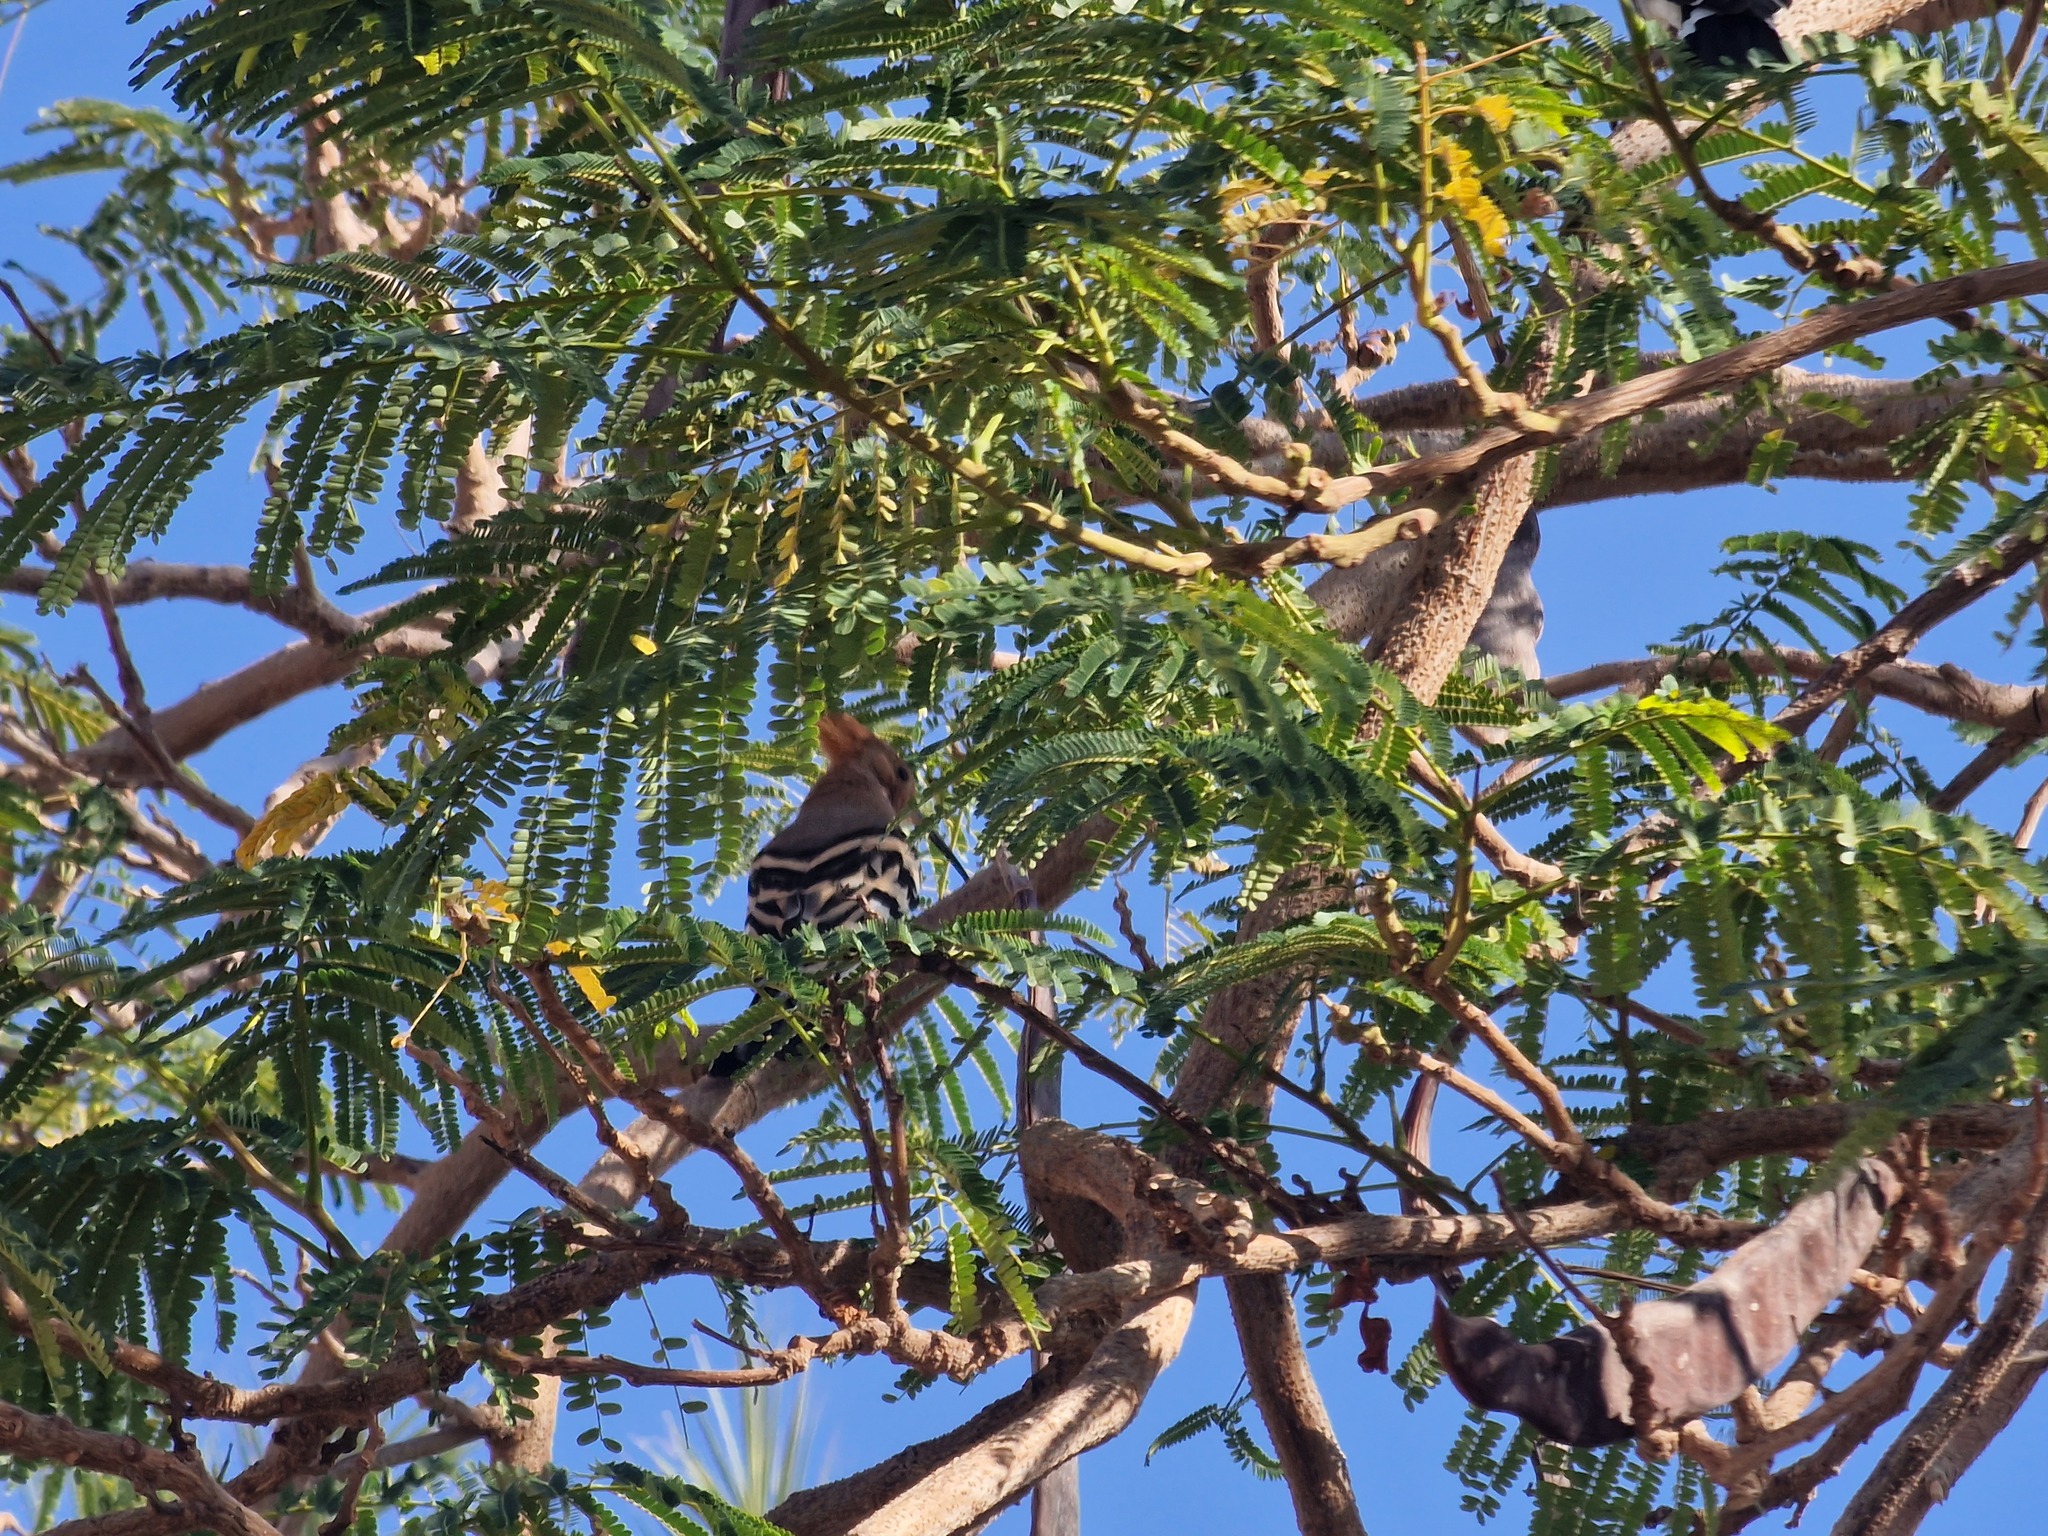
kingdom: Animalia
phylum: Chordata
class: Aves
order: Bucerotiformes
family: Upupidae
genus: Upupa
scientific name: Upupa epops
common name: Eurasian hoopoe
